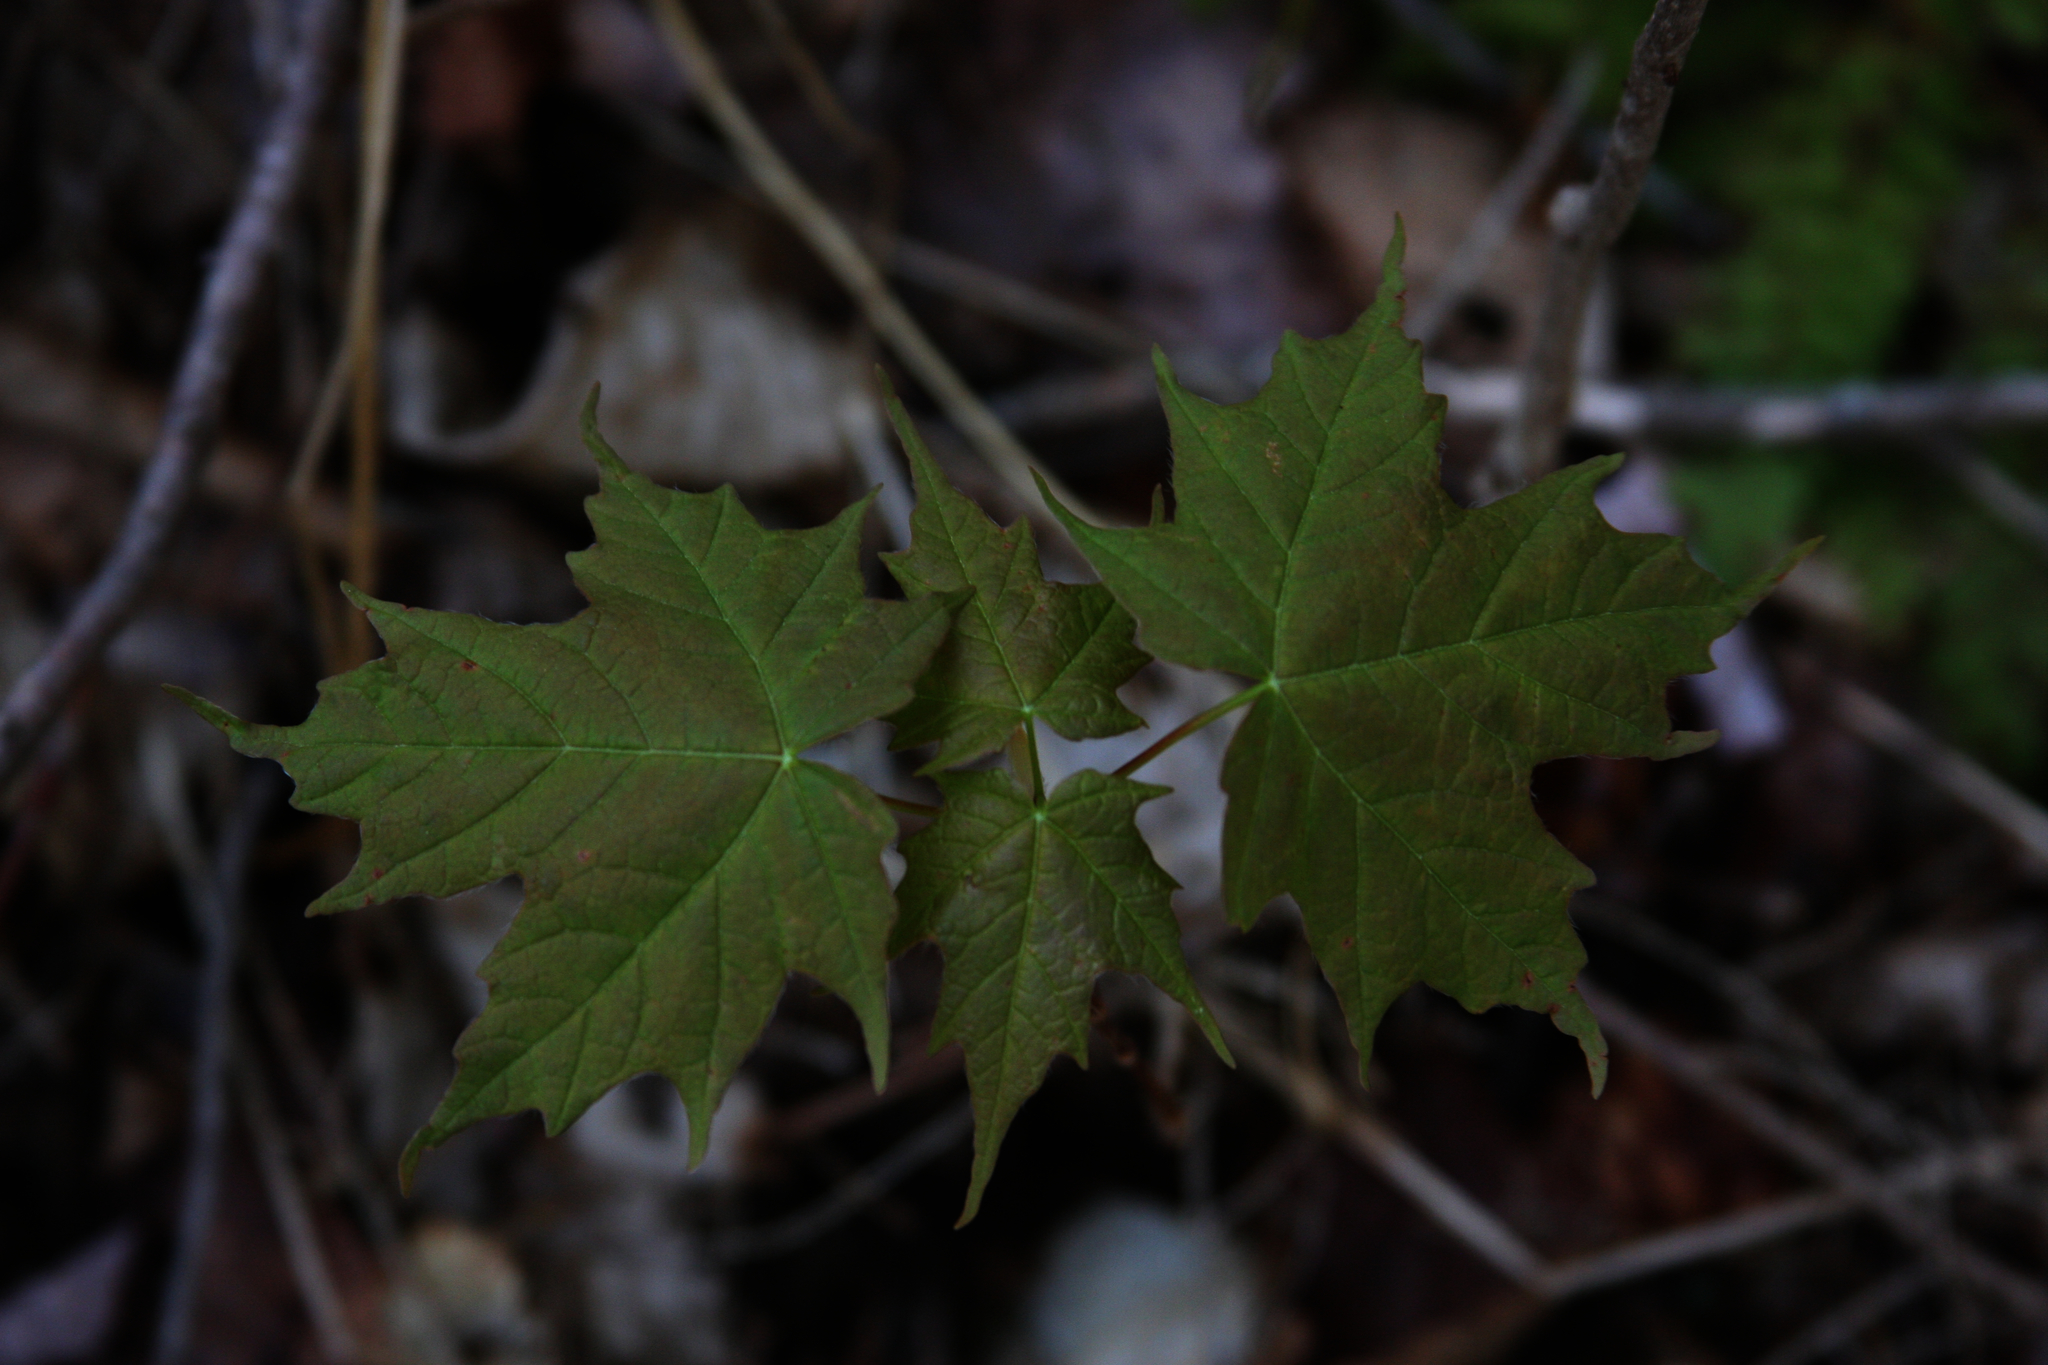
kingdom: Plantae
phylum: Tracheophyta
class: Magnoliopsida
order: Sapindales
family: Sapindaceae
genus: Acer
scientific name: Acer saccharum
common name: Sugar maple
